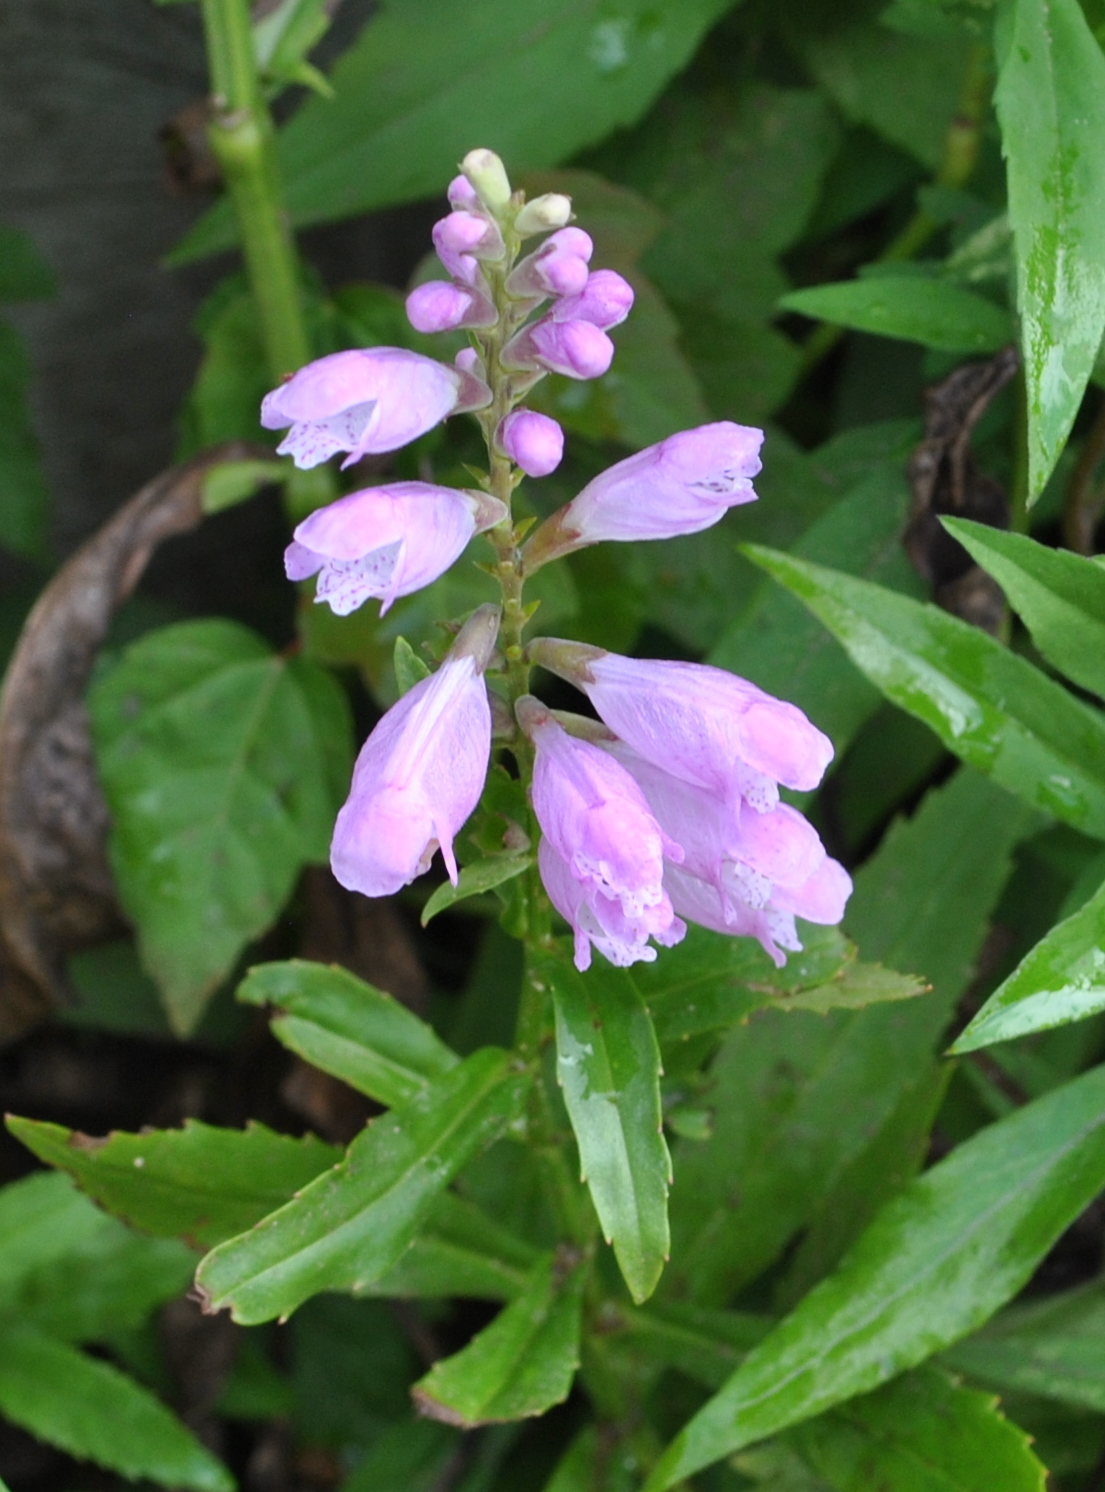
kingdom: Plantae
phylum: Tracheophyta
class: Magnoliopsida
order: Lamiales
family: Lamiaceae
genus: Physostegia
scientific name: Physostegia virginiana
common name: Obedient-plant
